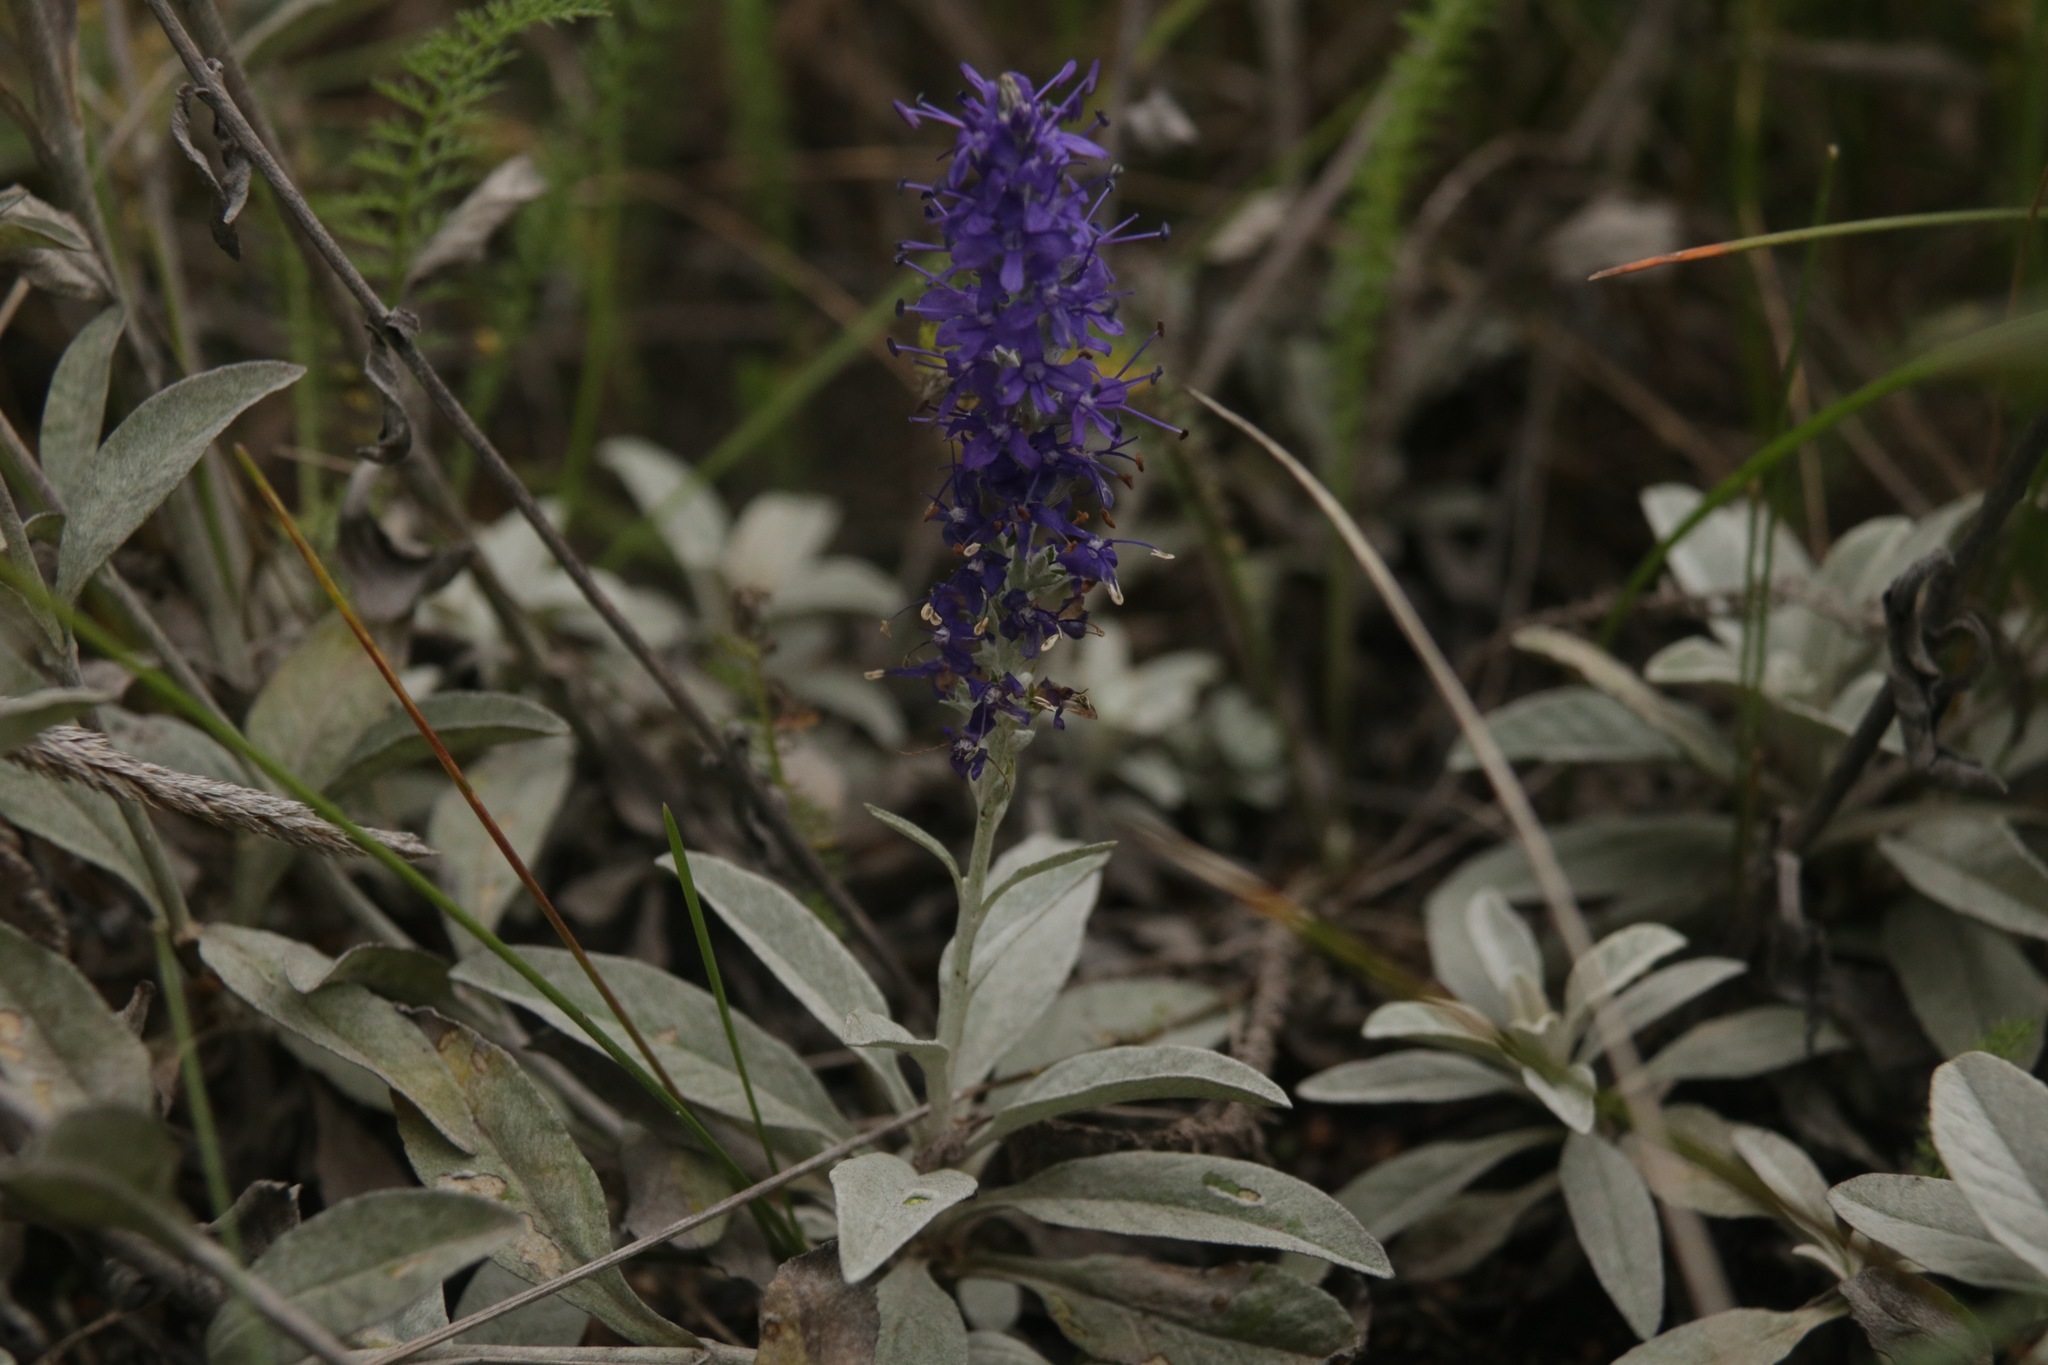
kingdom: Plantae
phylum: Tracheophyta
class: Magnoliopsida
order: Lamiales
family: Plantaginaceae
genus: Veronica
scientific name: Veronica incana
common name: Silver speedwell
